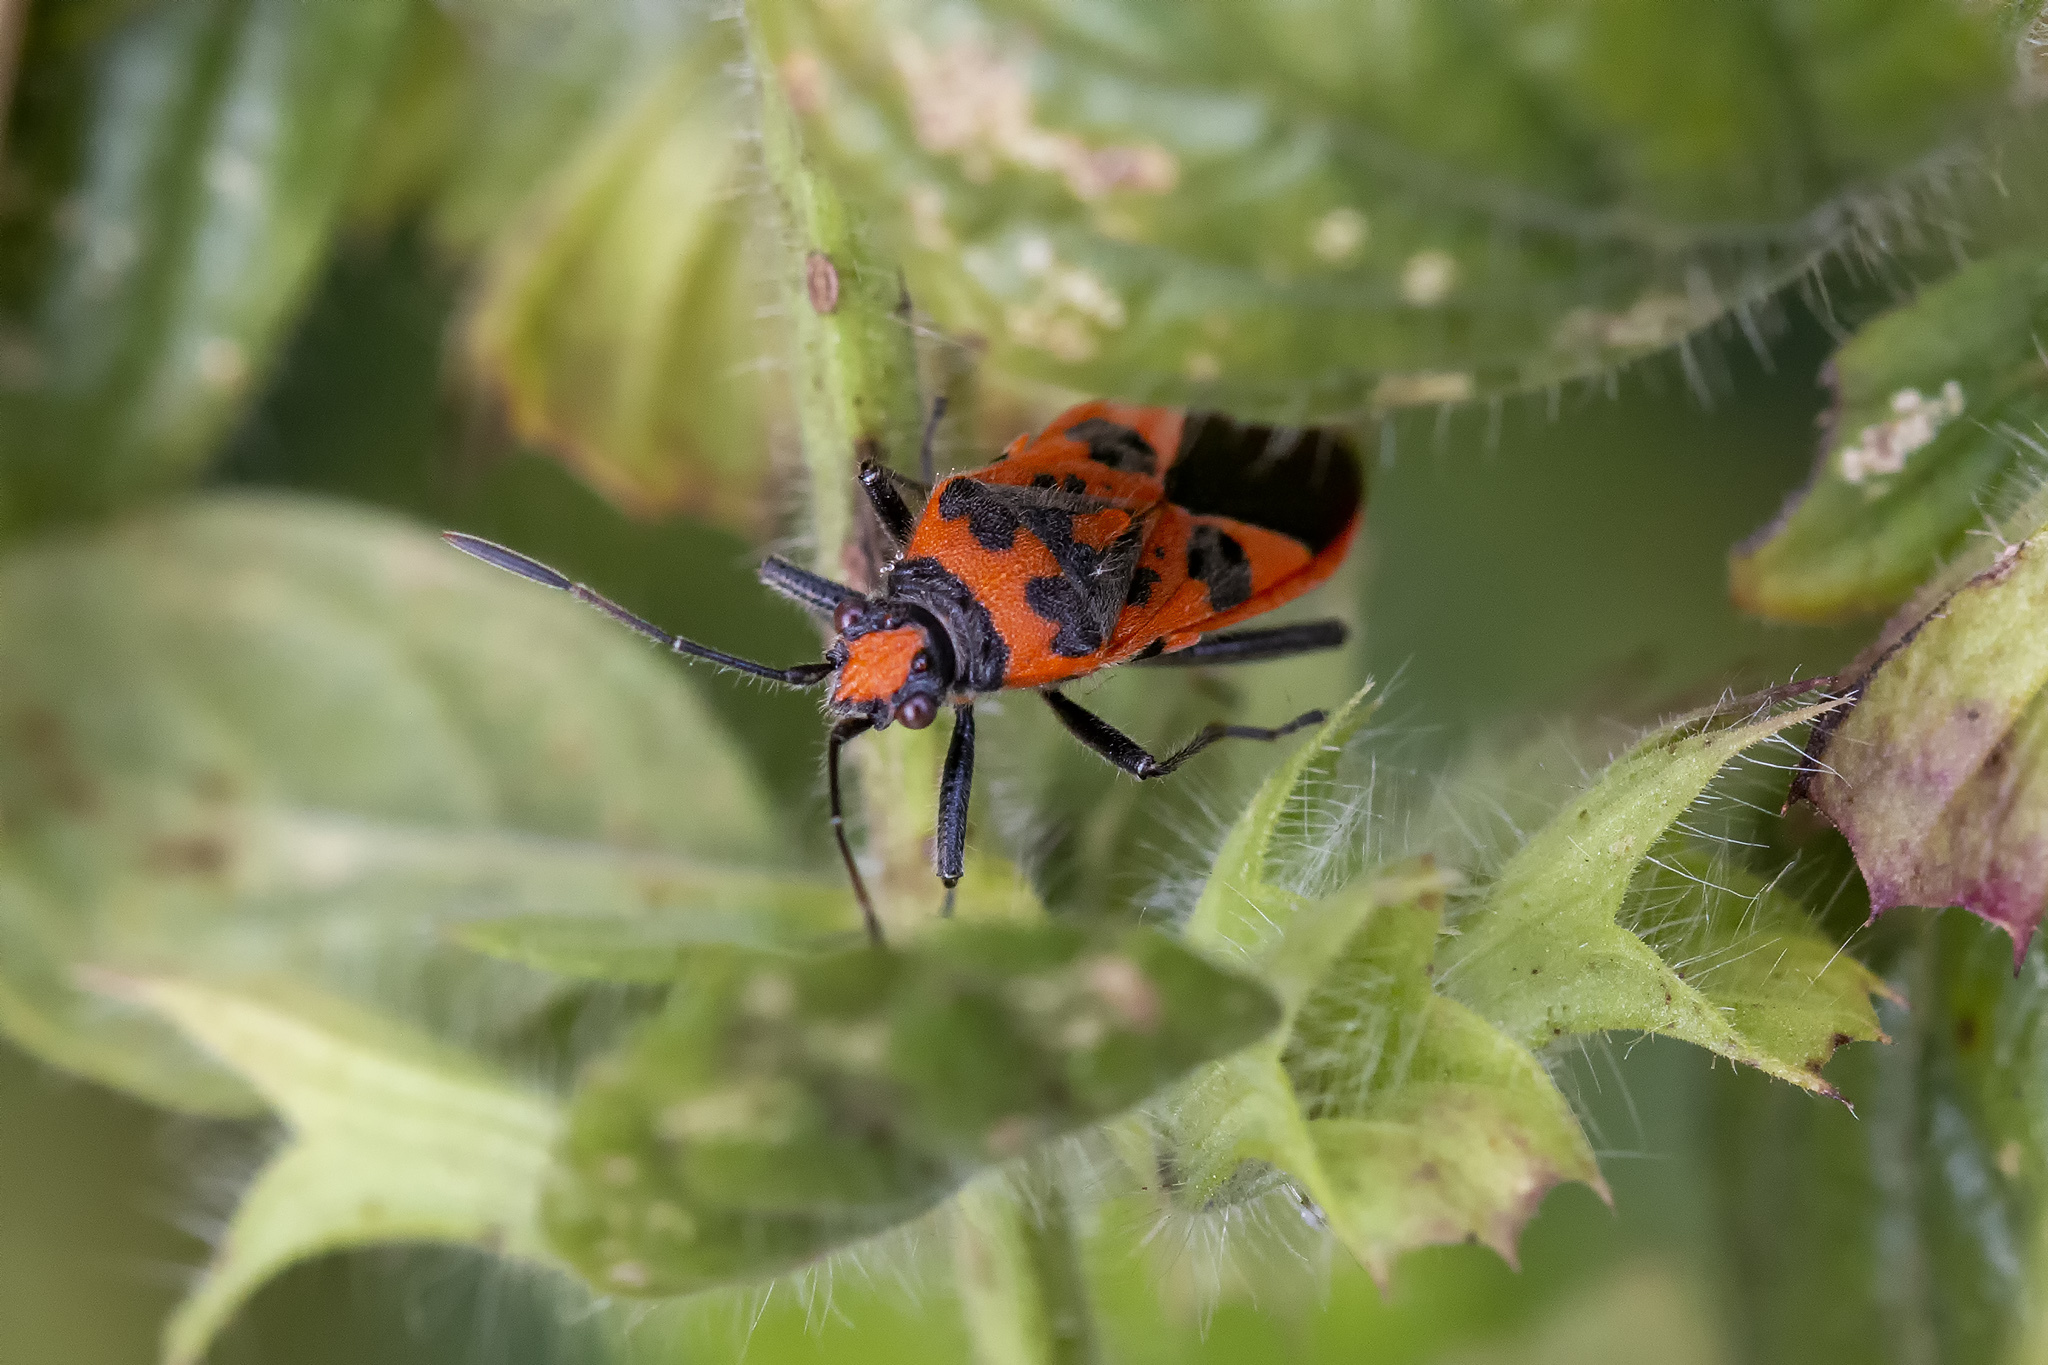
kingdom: Animalia
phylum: Arthropoda
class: Insecta
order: Hemiptera
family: Rhopalidae
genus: Corizus
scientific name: Corizus hyoscyami
